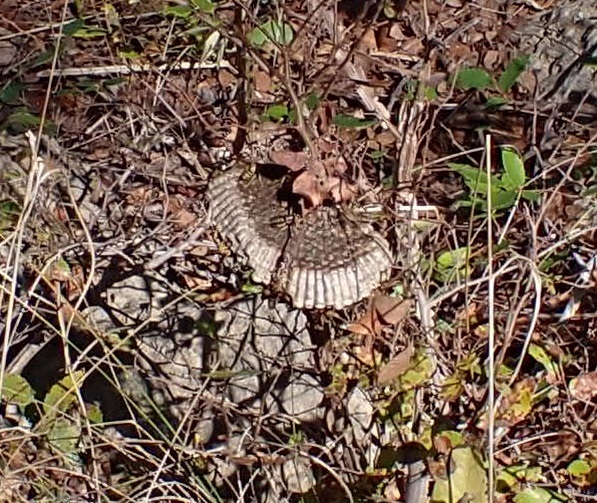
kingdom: Animalia
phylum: Arthropoda
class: Insecta
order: Hymenoptera
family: Vespidae
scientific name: Vespidae
